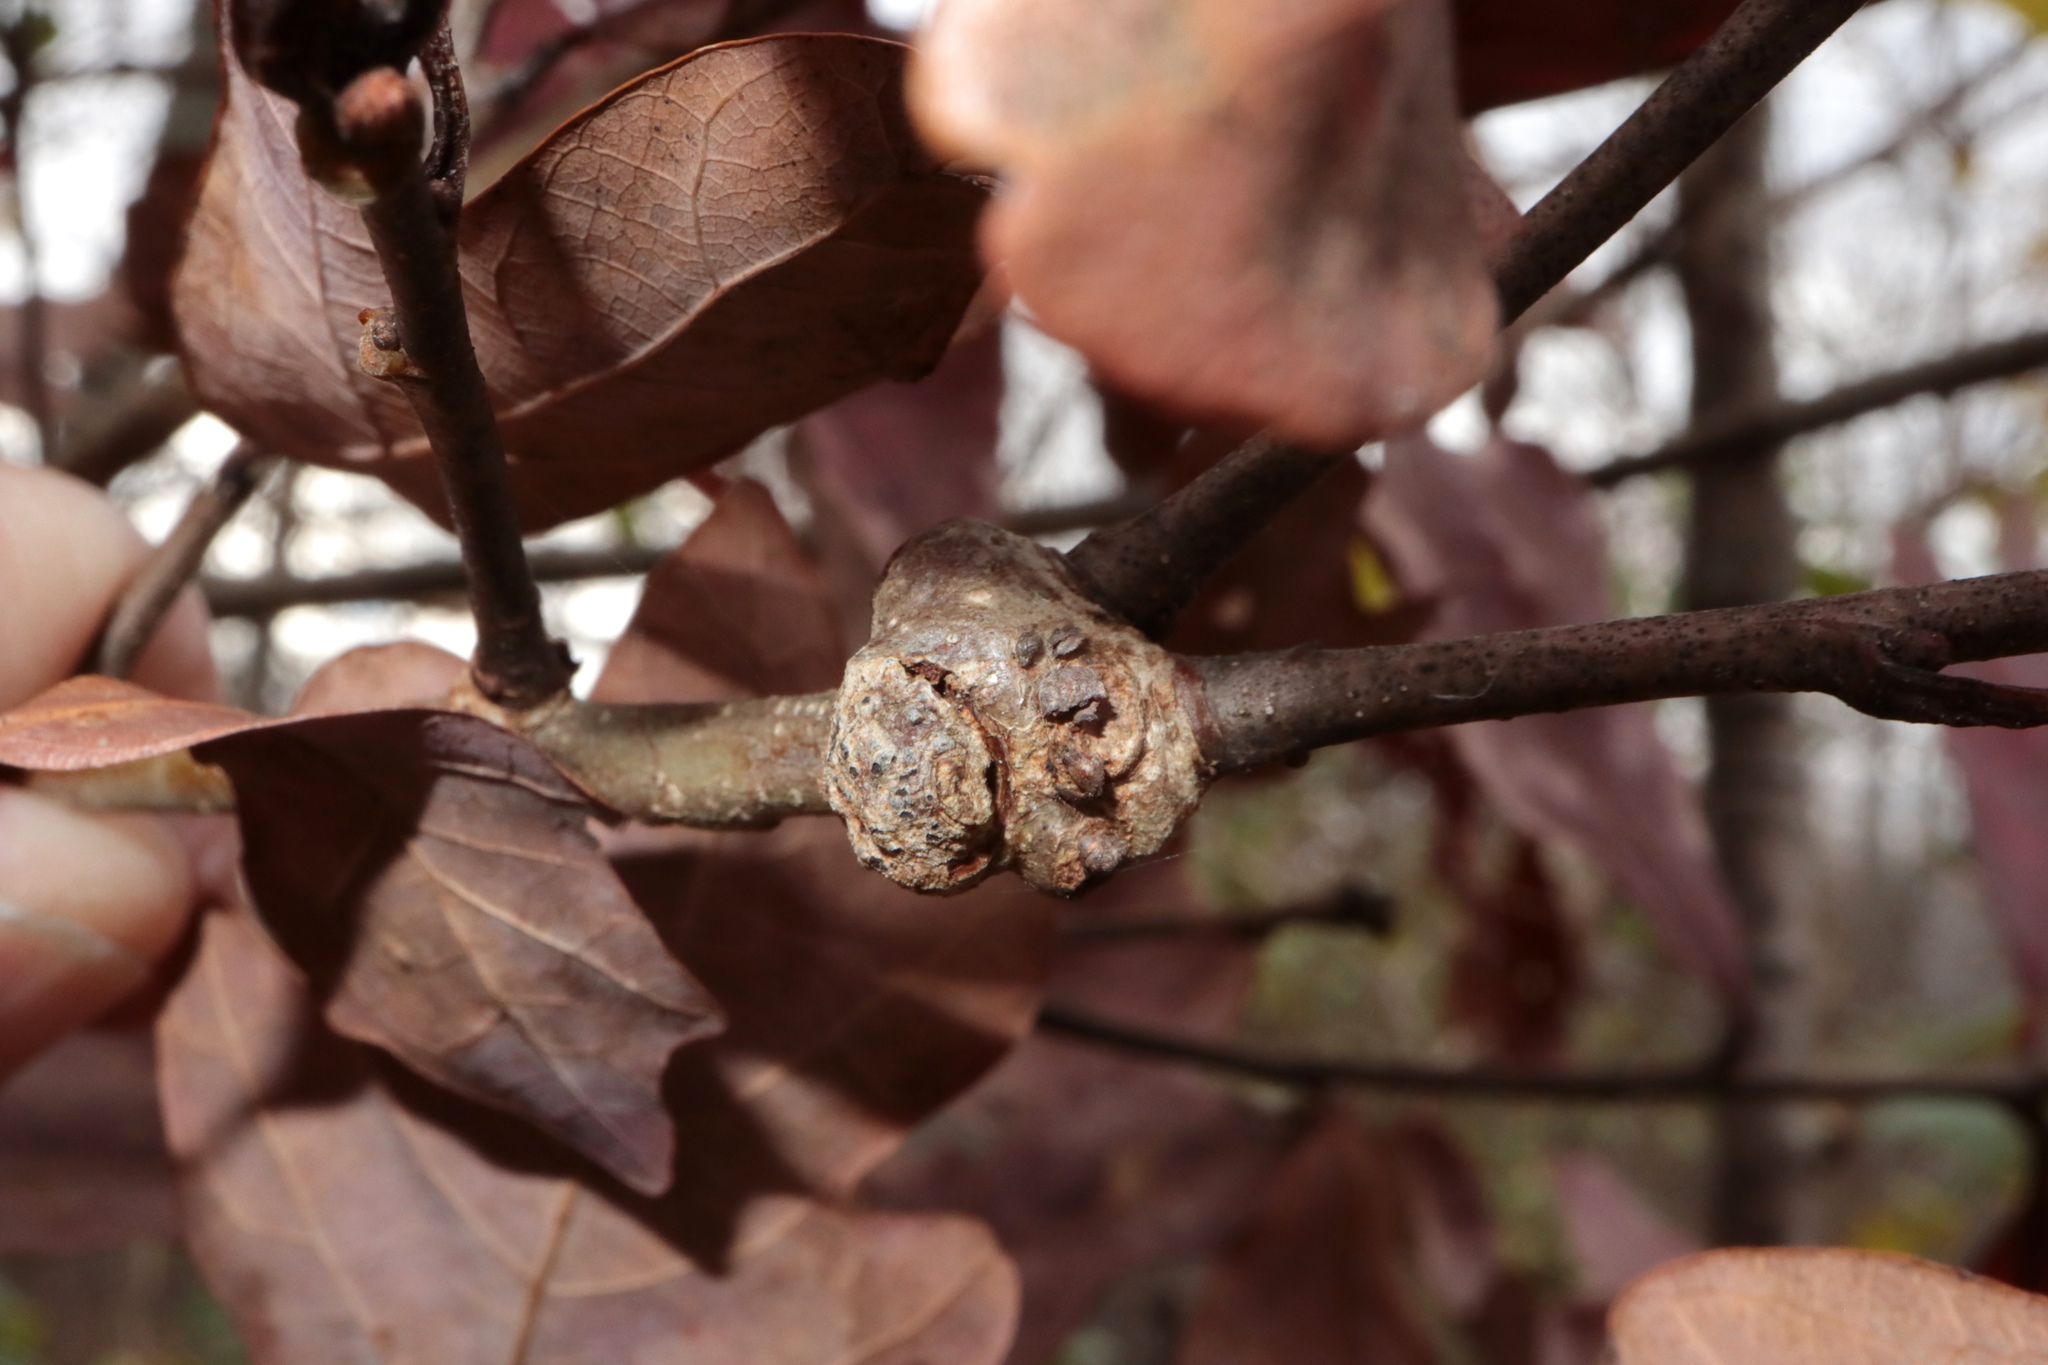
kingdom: Animalia
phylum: Arthropoda
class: Insecta
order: Hymenoptera
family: Cynipidae
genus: Loxaulus
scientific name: Loxaulus
